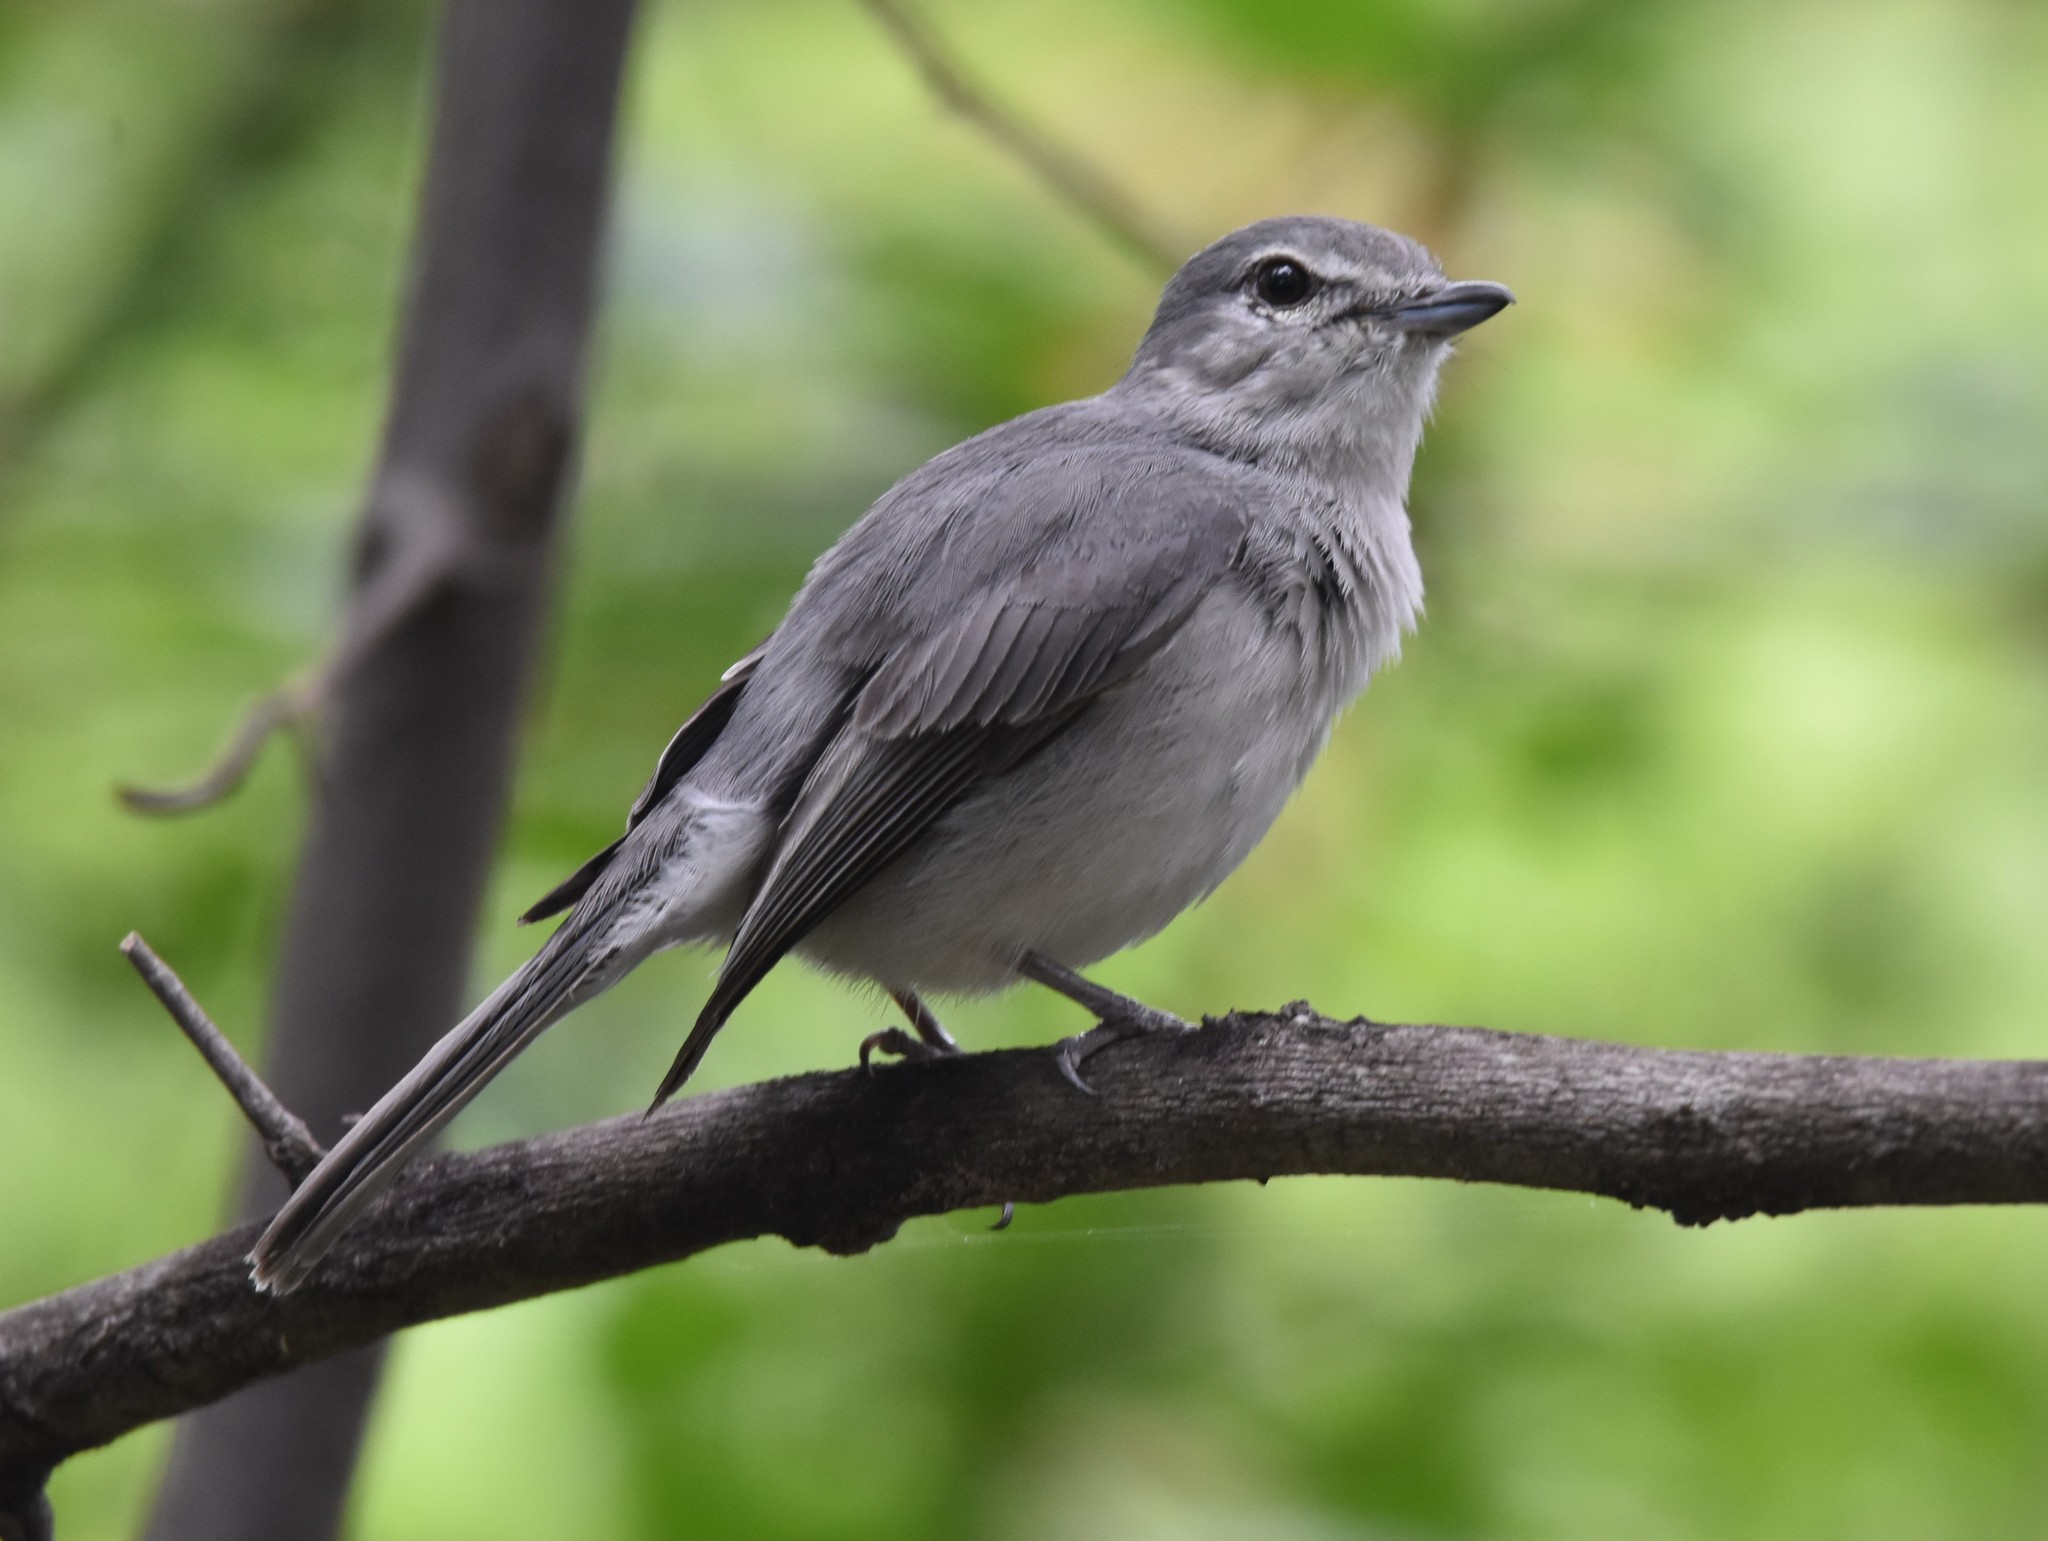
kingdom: Animalia
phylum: Chordata
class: Aves
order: Passeriformes
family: Muscicapidae
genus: Muscicapa
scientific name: Muscicapa caerulescens
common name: Ashy flycatcher
